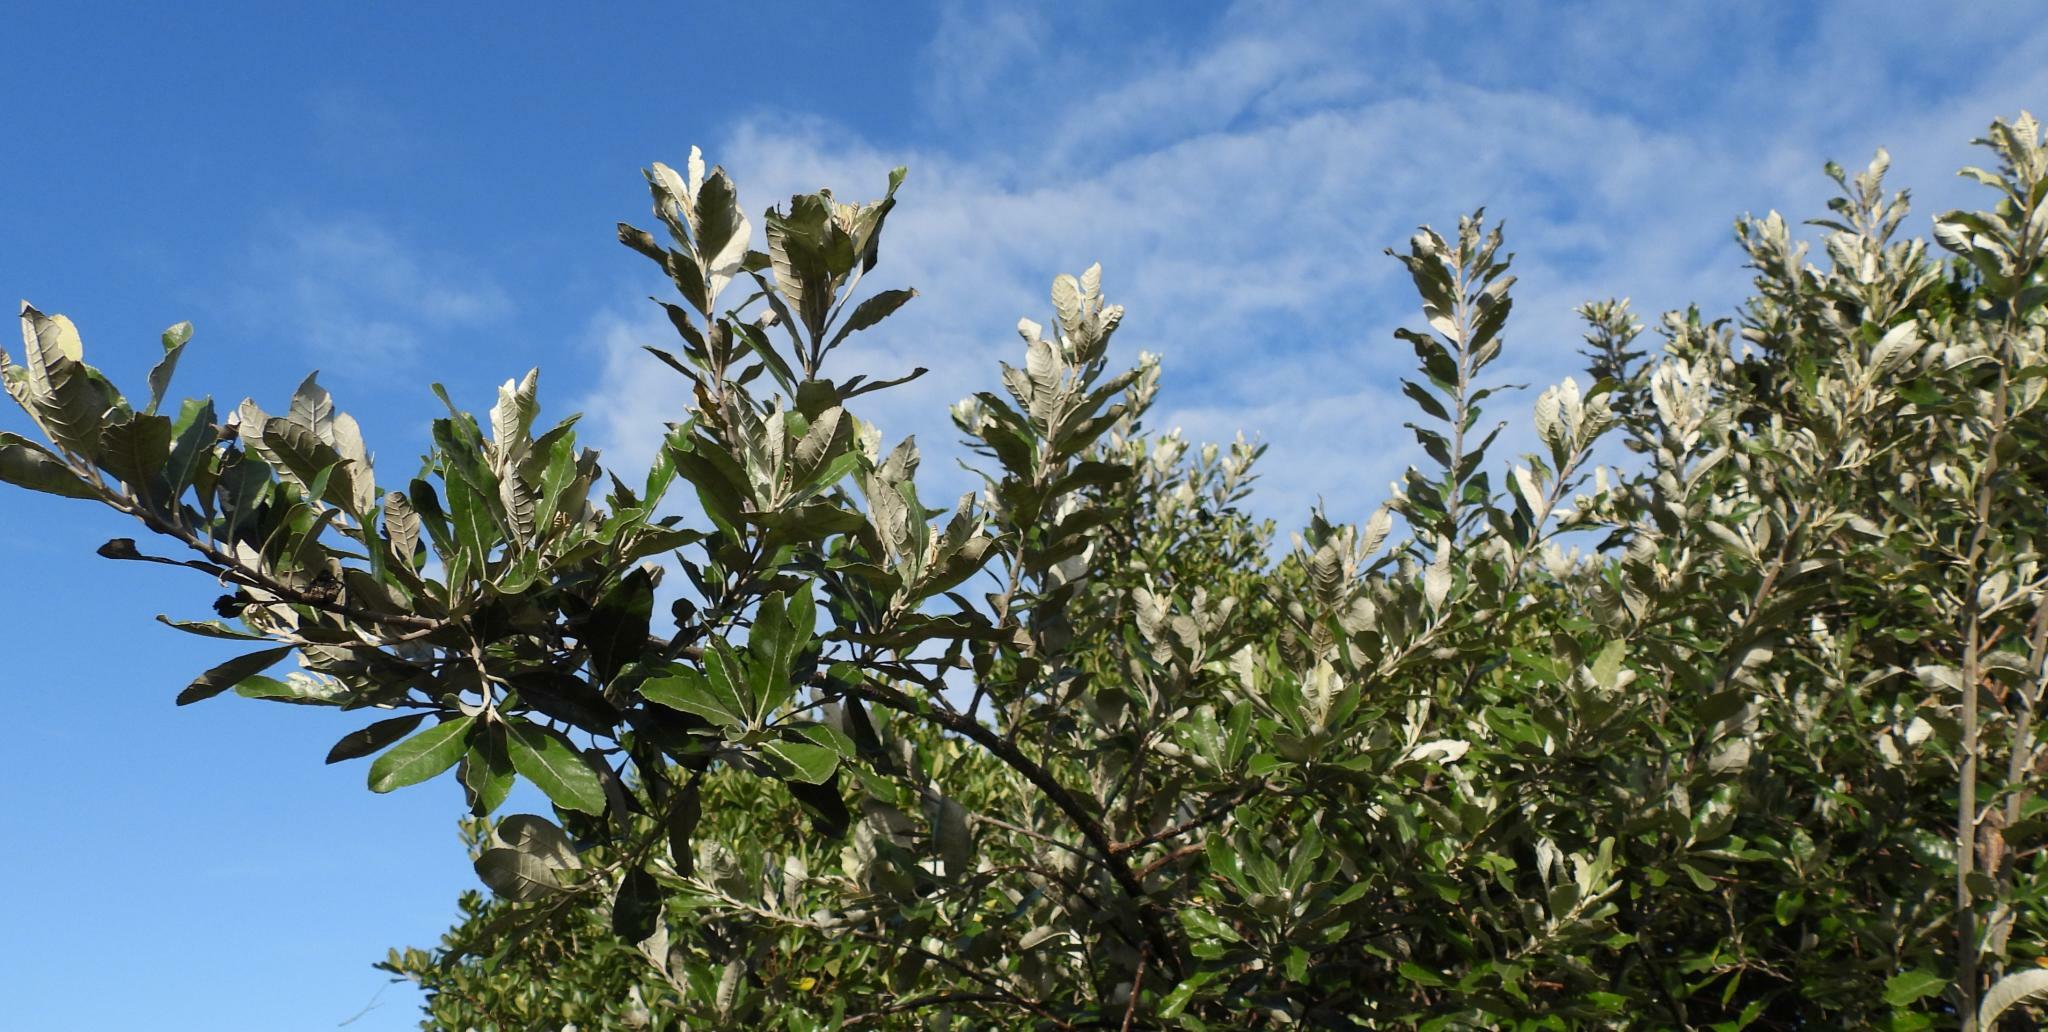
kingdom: Plantae
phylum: Tracheophyta
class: Magnoliopsida
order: Asterales
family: Asteraceae
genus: Brachylaena
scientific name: Brachylaena discolor
